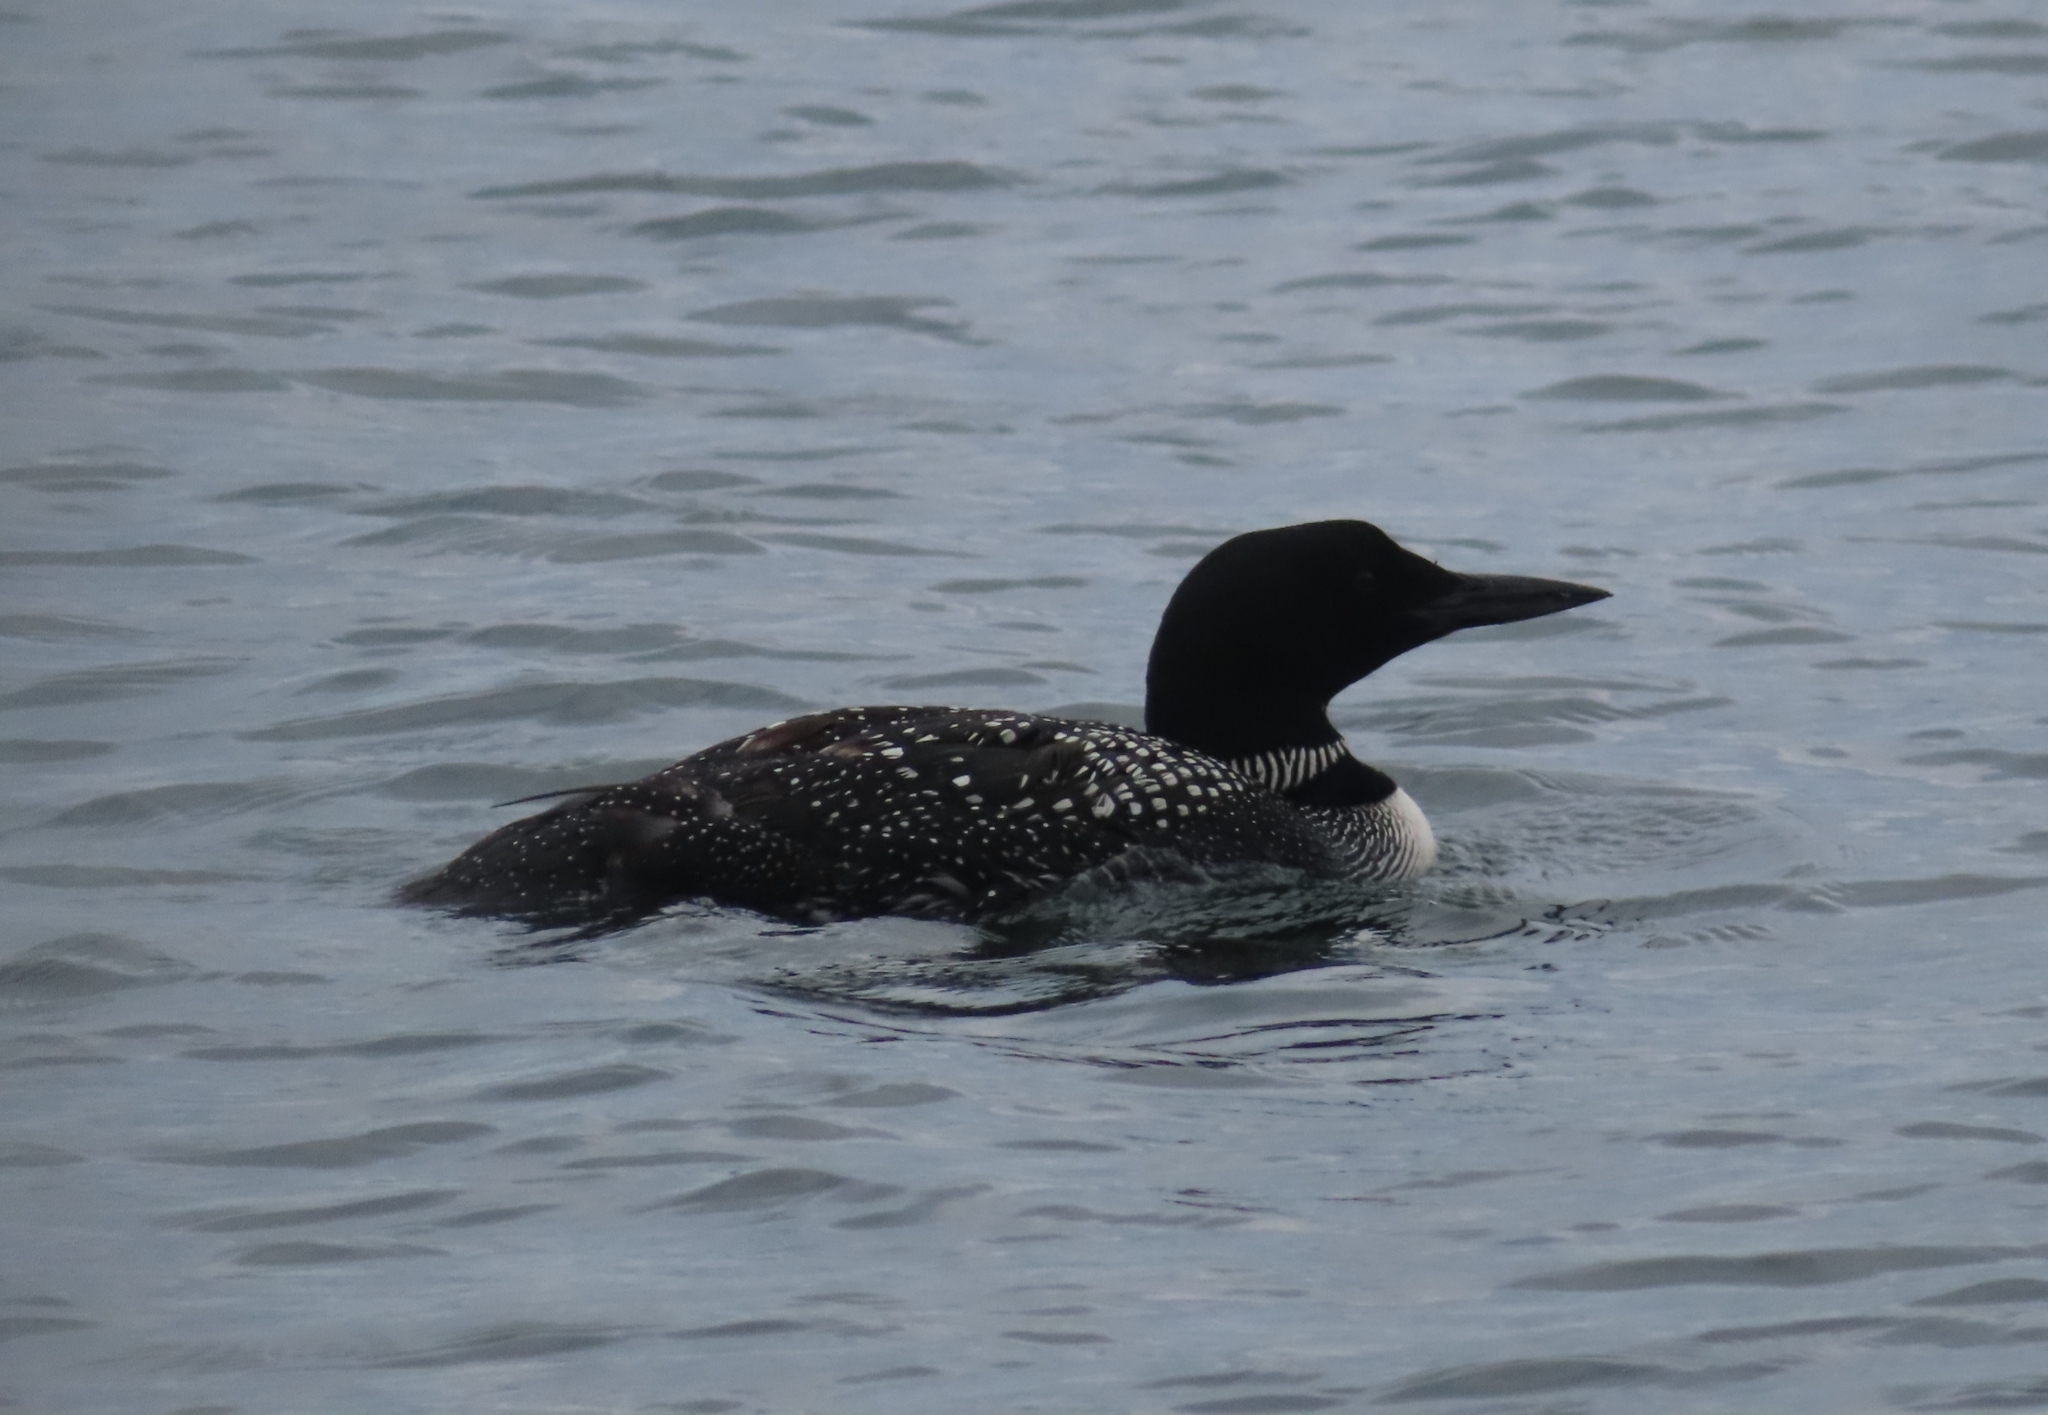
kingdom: Animalia
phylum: Chordata
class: Aves
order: Gaviiformes
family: Gaviidae
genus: Gavia
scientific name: Gavia immer
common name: Common loon
